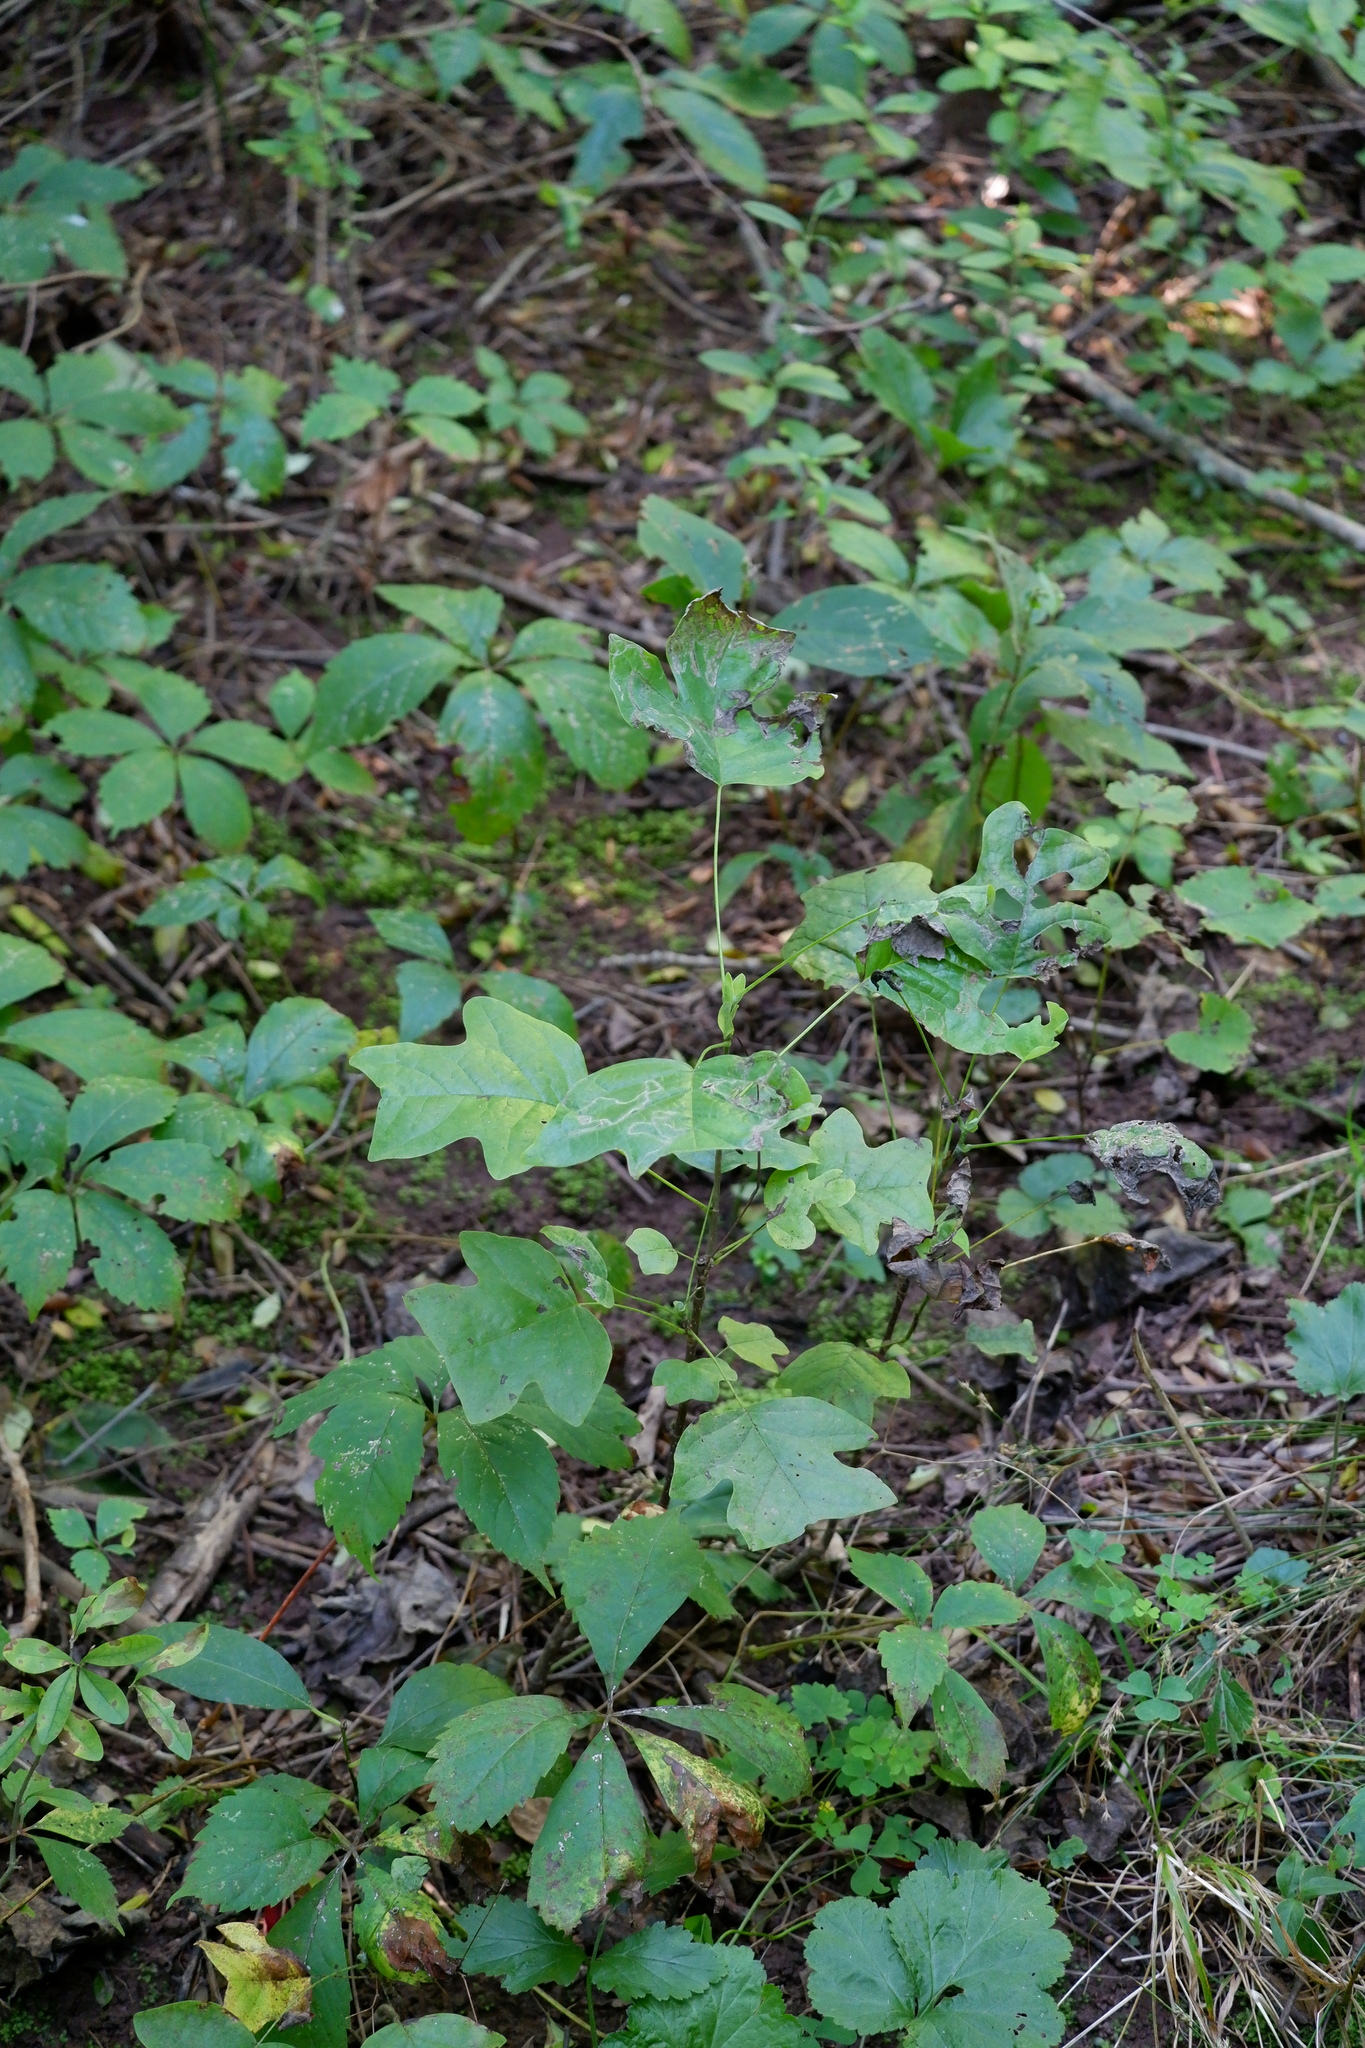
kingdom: Plantae
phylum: Tracheophyta
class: Magnoliopsida
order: Magnoliales
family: Magnoliaceae
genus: Liriodendron
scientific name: Liriodendron tulipifera
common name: Tulip tree
